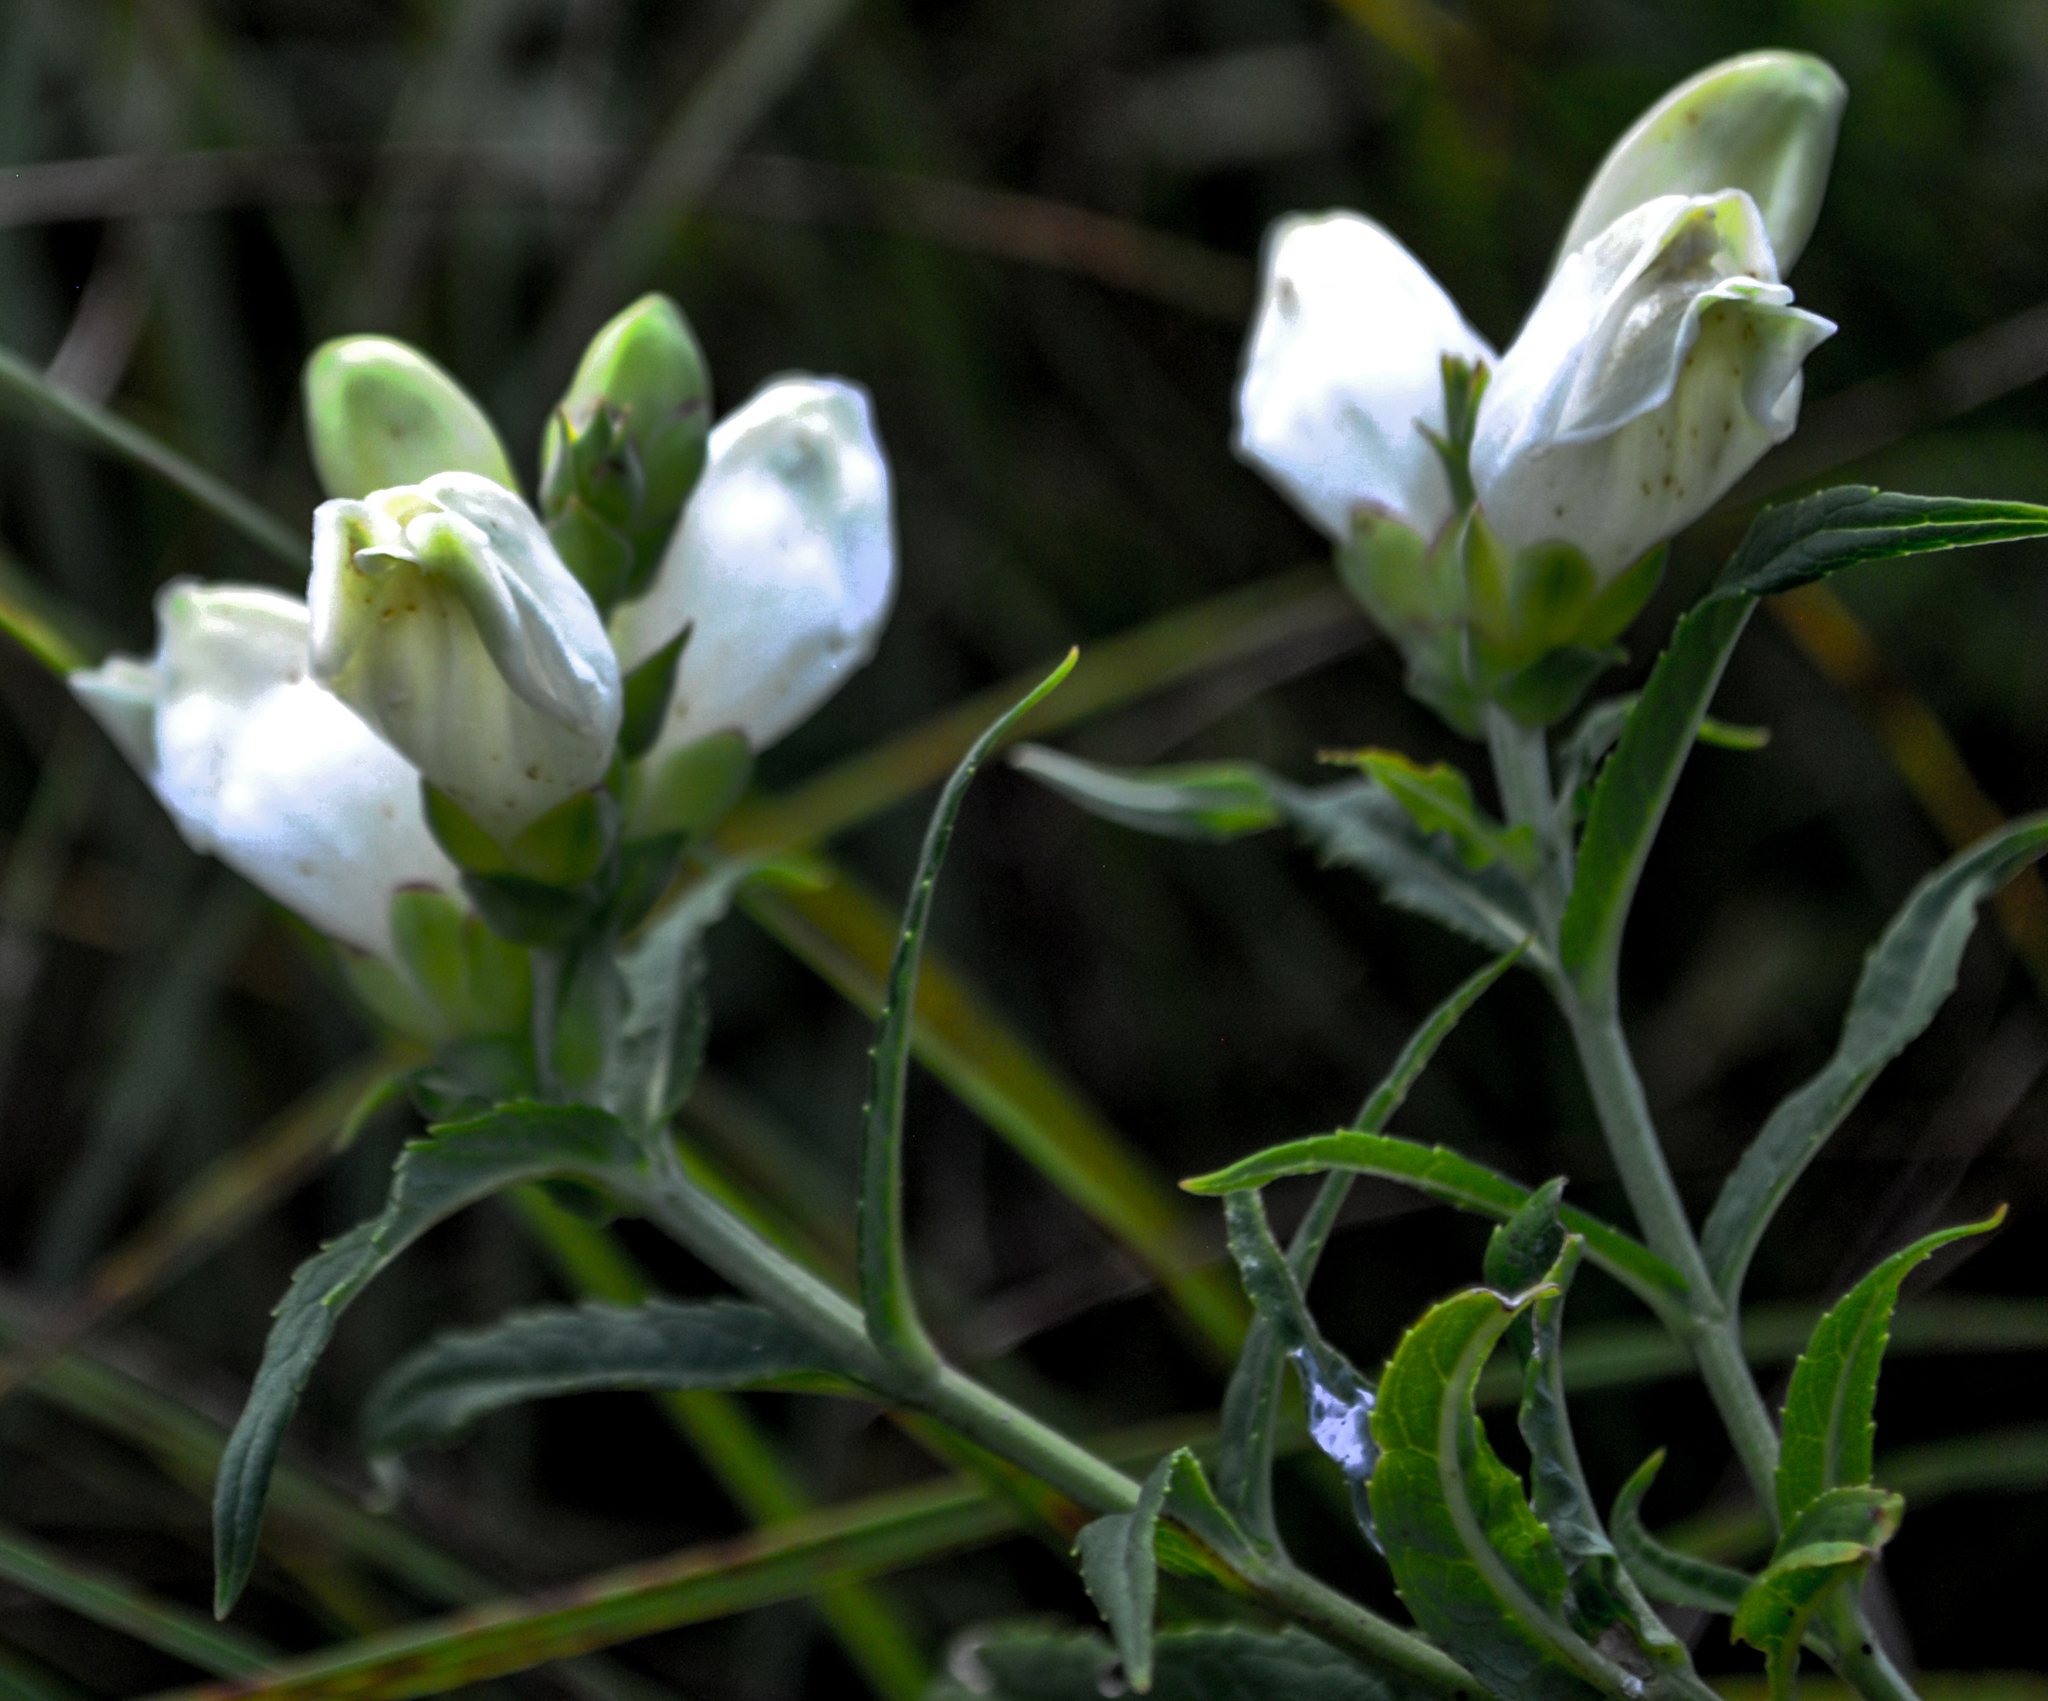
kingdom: Plantae
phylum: Tracheophyta
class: Magnoliopsida
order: Lamiales
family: Plantaginaceae
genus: Chelone
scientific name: Chelone glabra
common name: Snakehead
